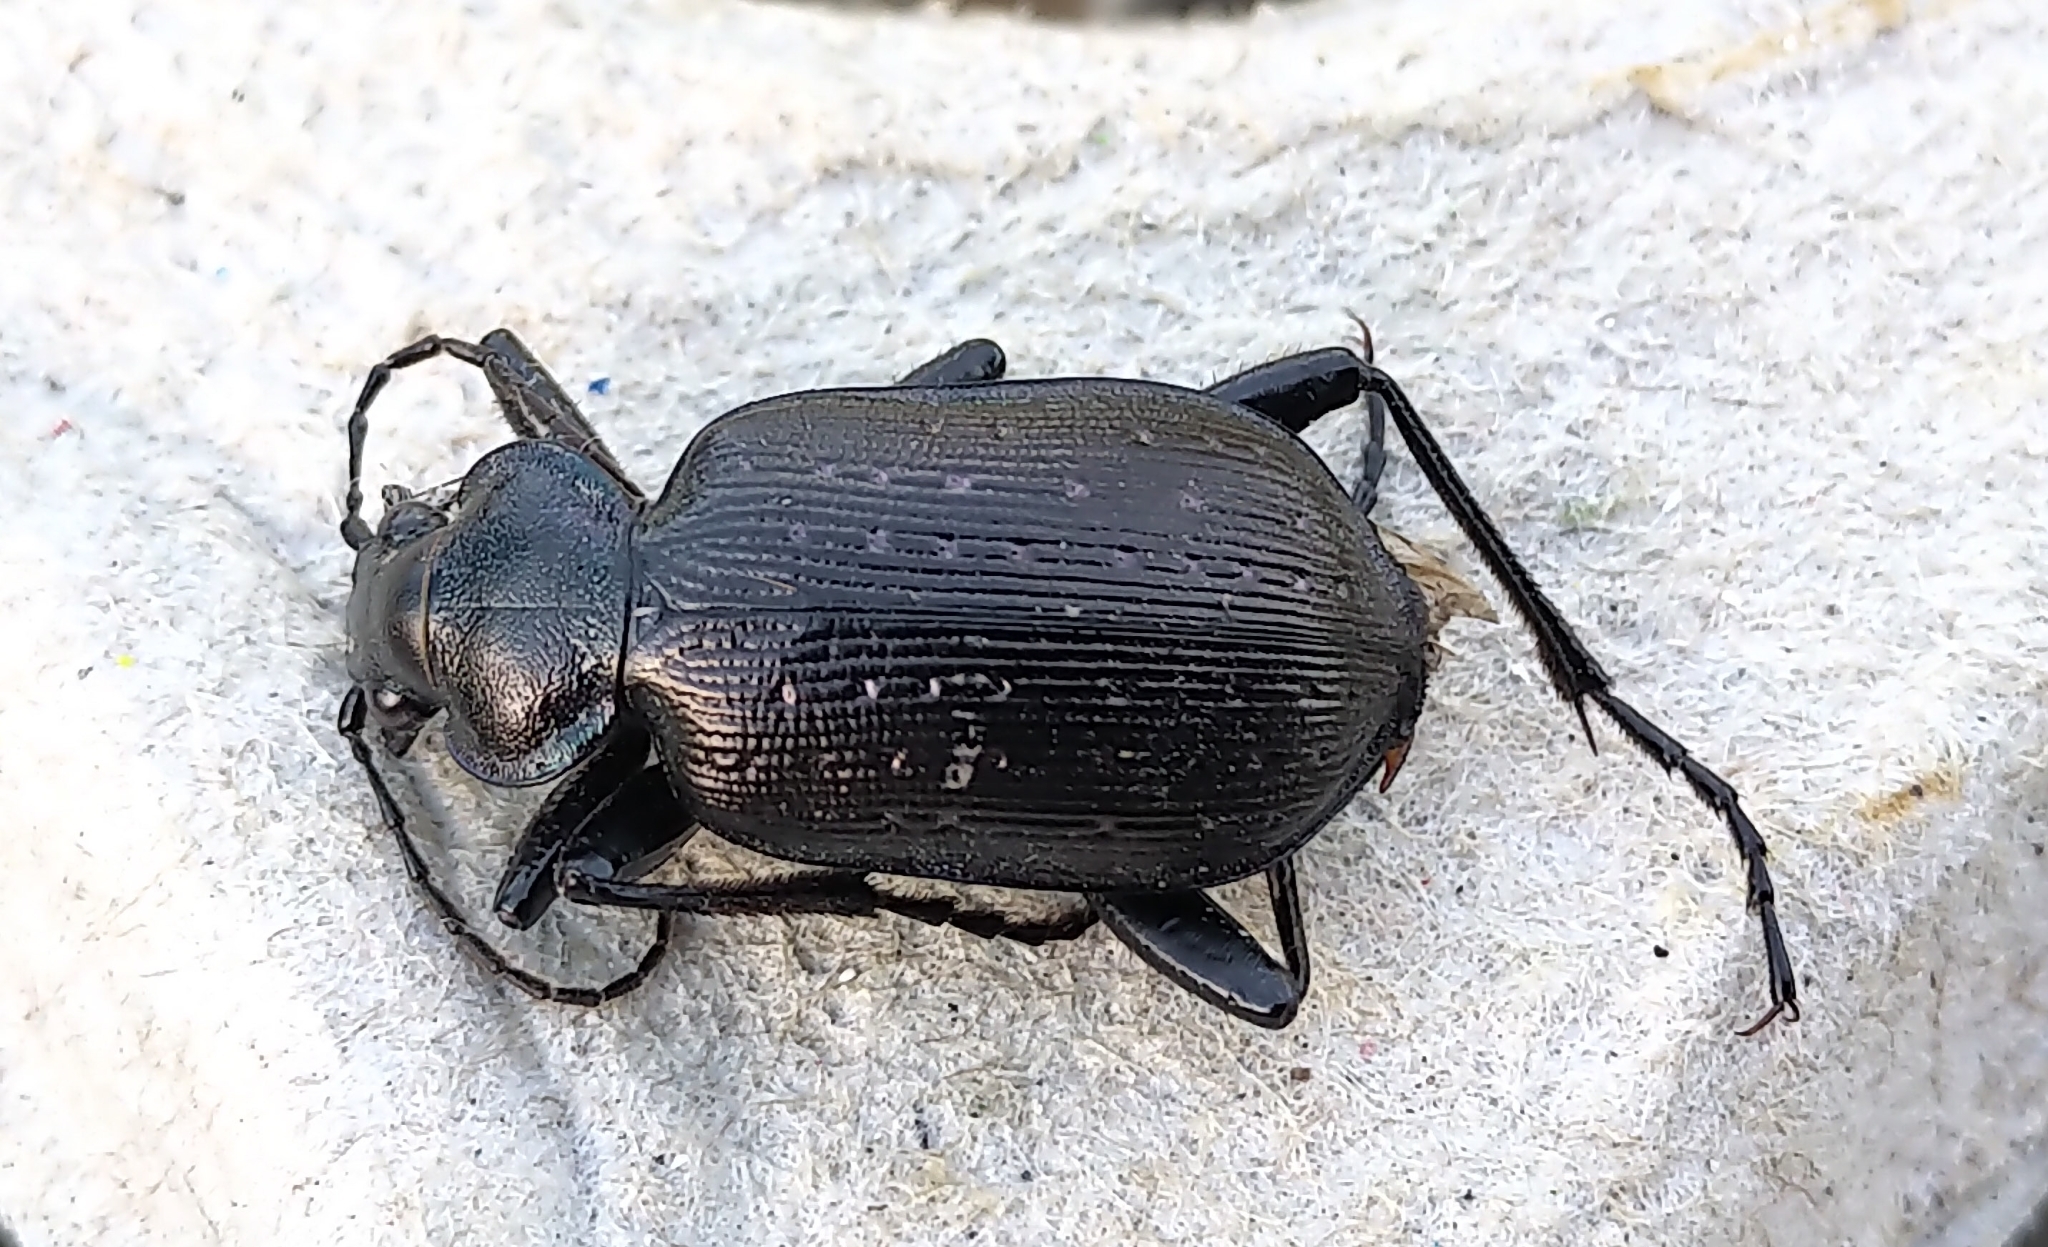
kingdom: Animalia
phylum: Arthropoda
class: Insecta
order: Coleoptera
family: Carabidae
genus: Calosoma
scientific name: Calosoma frigidum
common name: Cold-country caterpillar hunter
